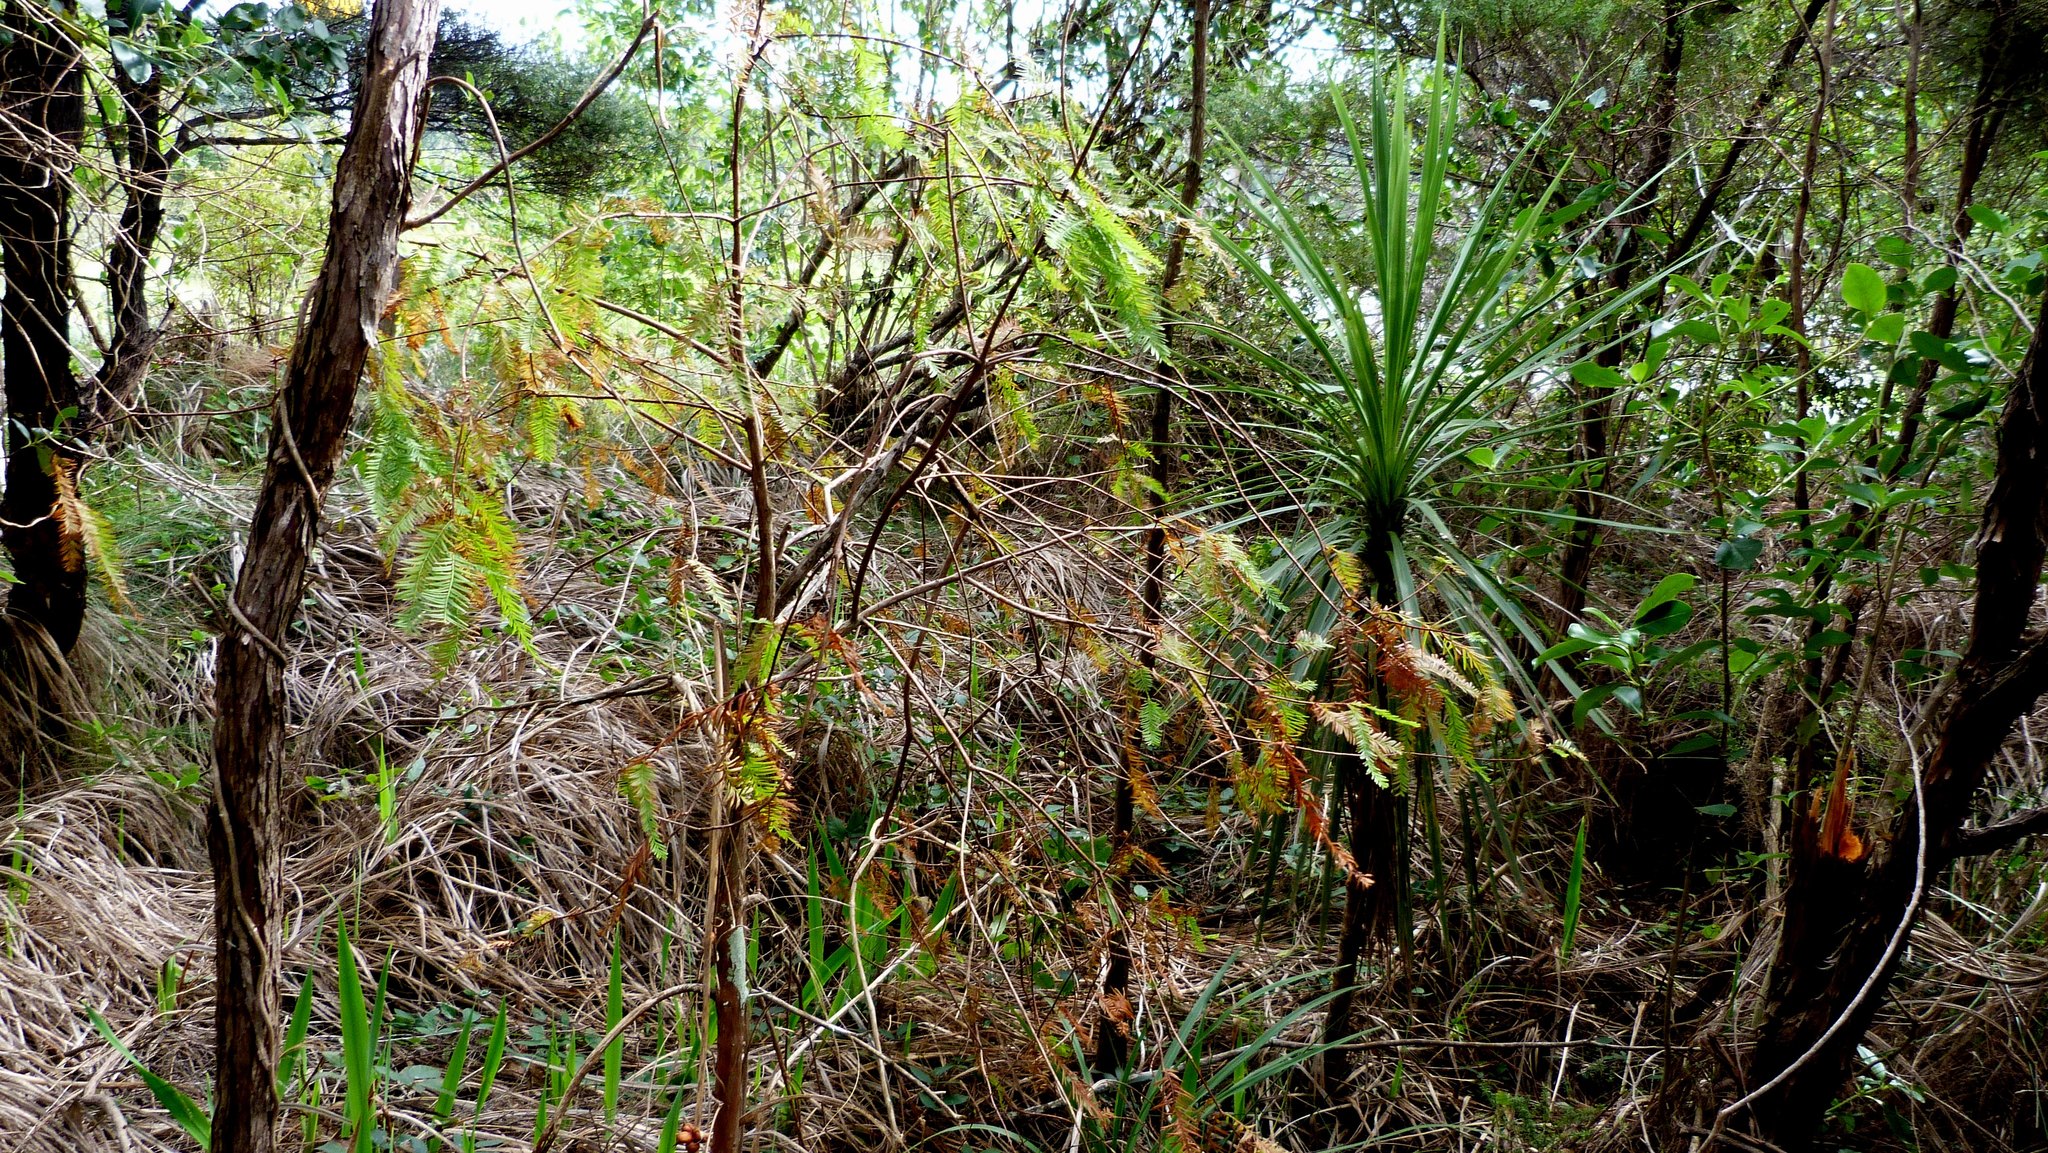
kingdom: Plantae
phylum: Tracheophyta
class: Pinopsida
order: Pinales
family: Cupressaceae
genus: Taxodium
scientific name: Taxodium distichum
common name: Bald cypress
